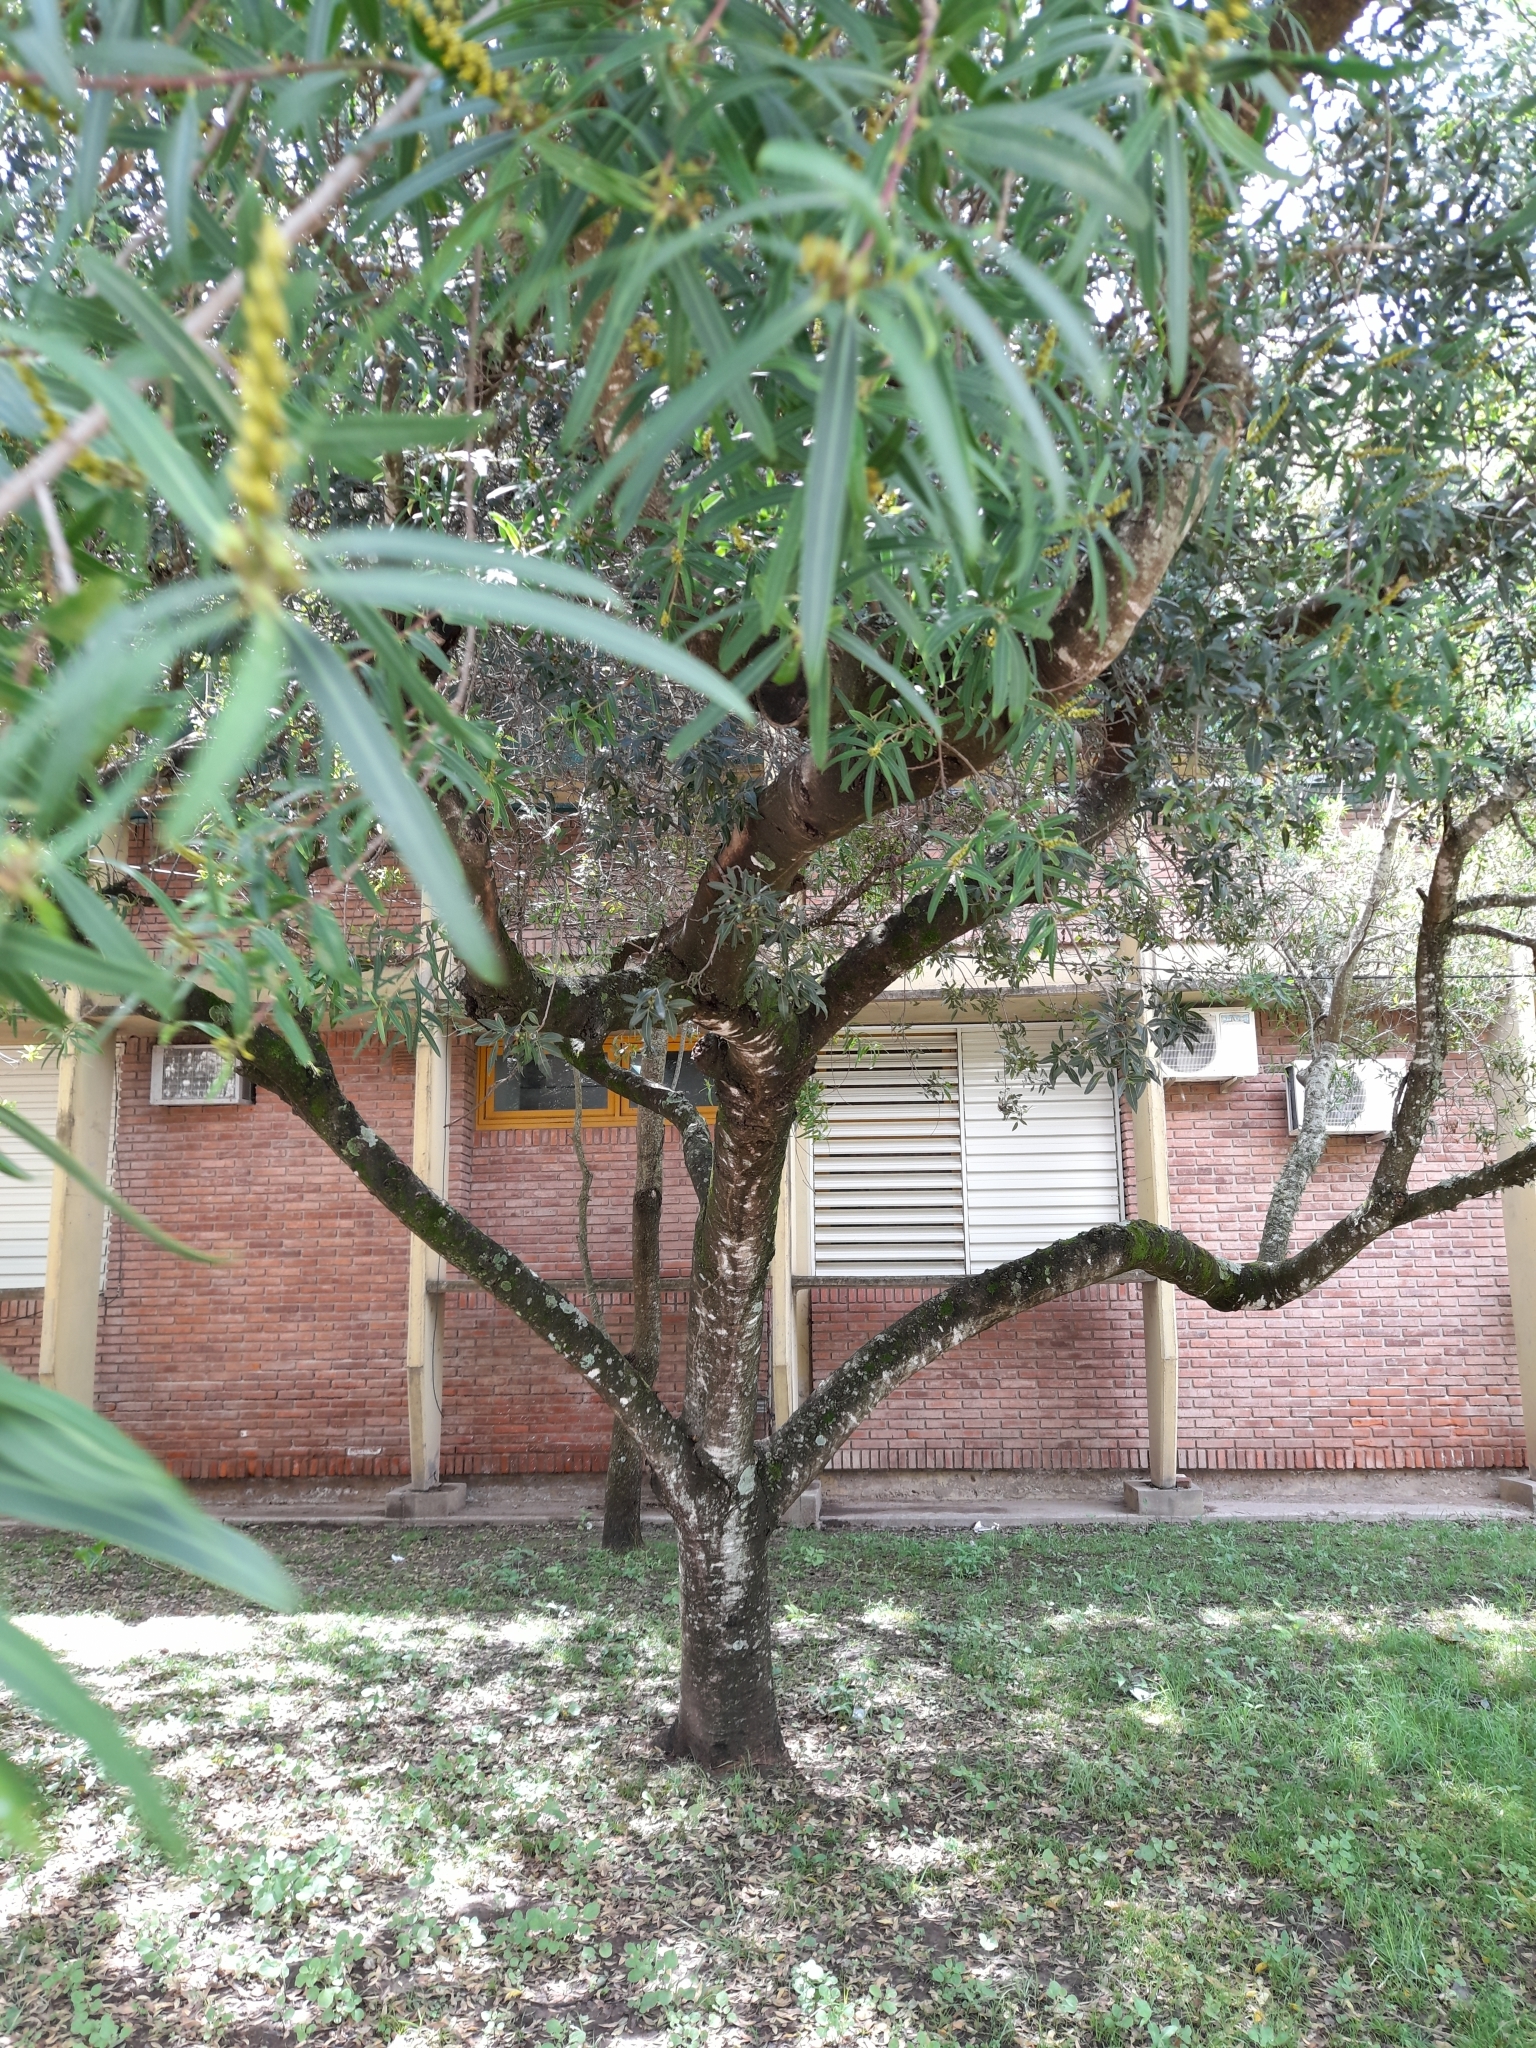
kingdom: Plantae
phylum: Tracheophyta
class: Magnoliopsida
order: Malpighiales
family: Euphorbiaceae
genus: Sapium
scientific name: Sapium haematospermum
